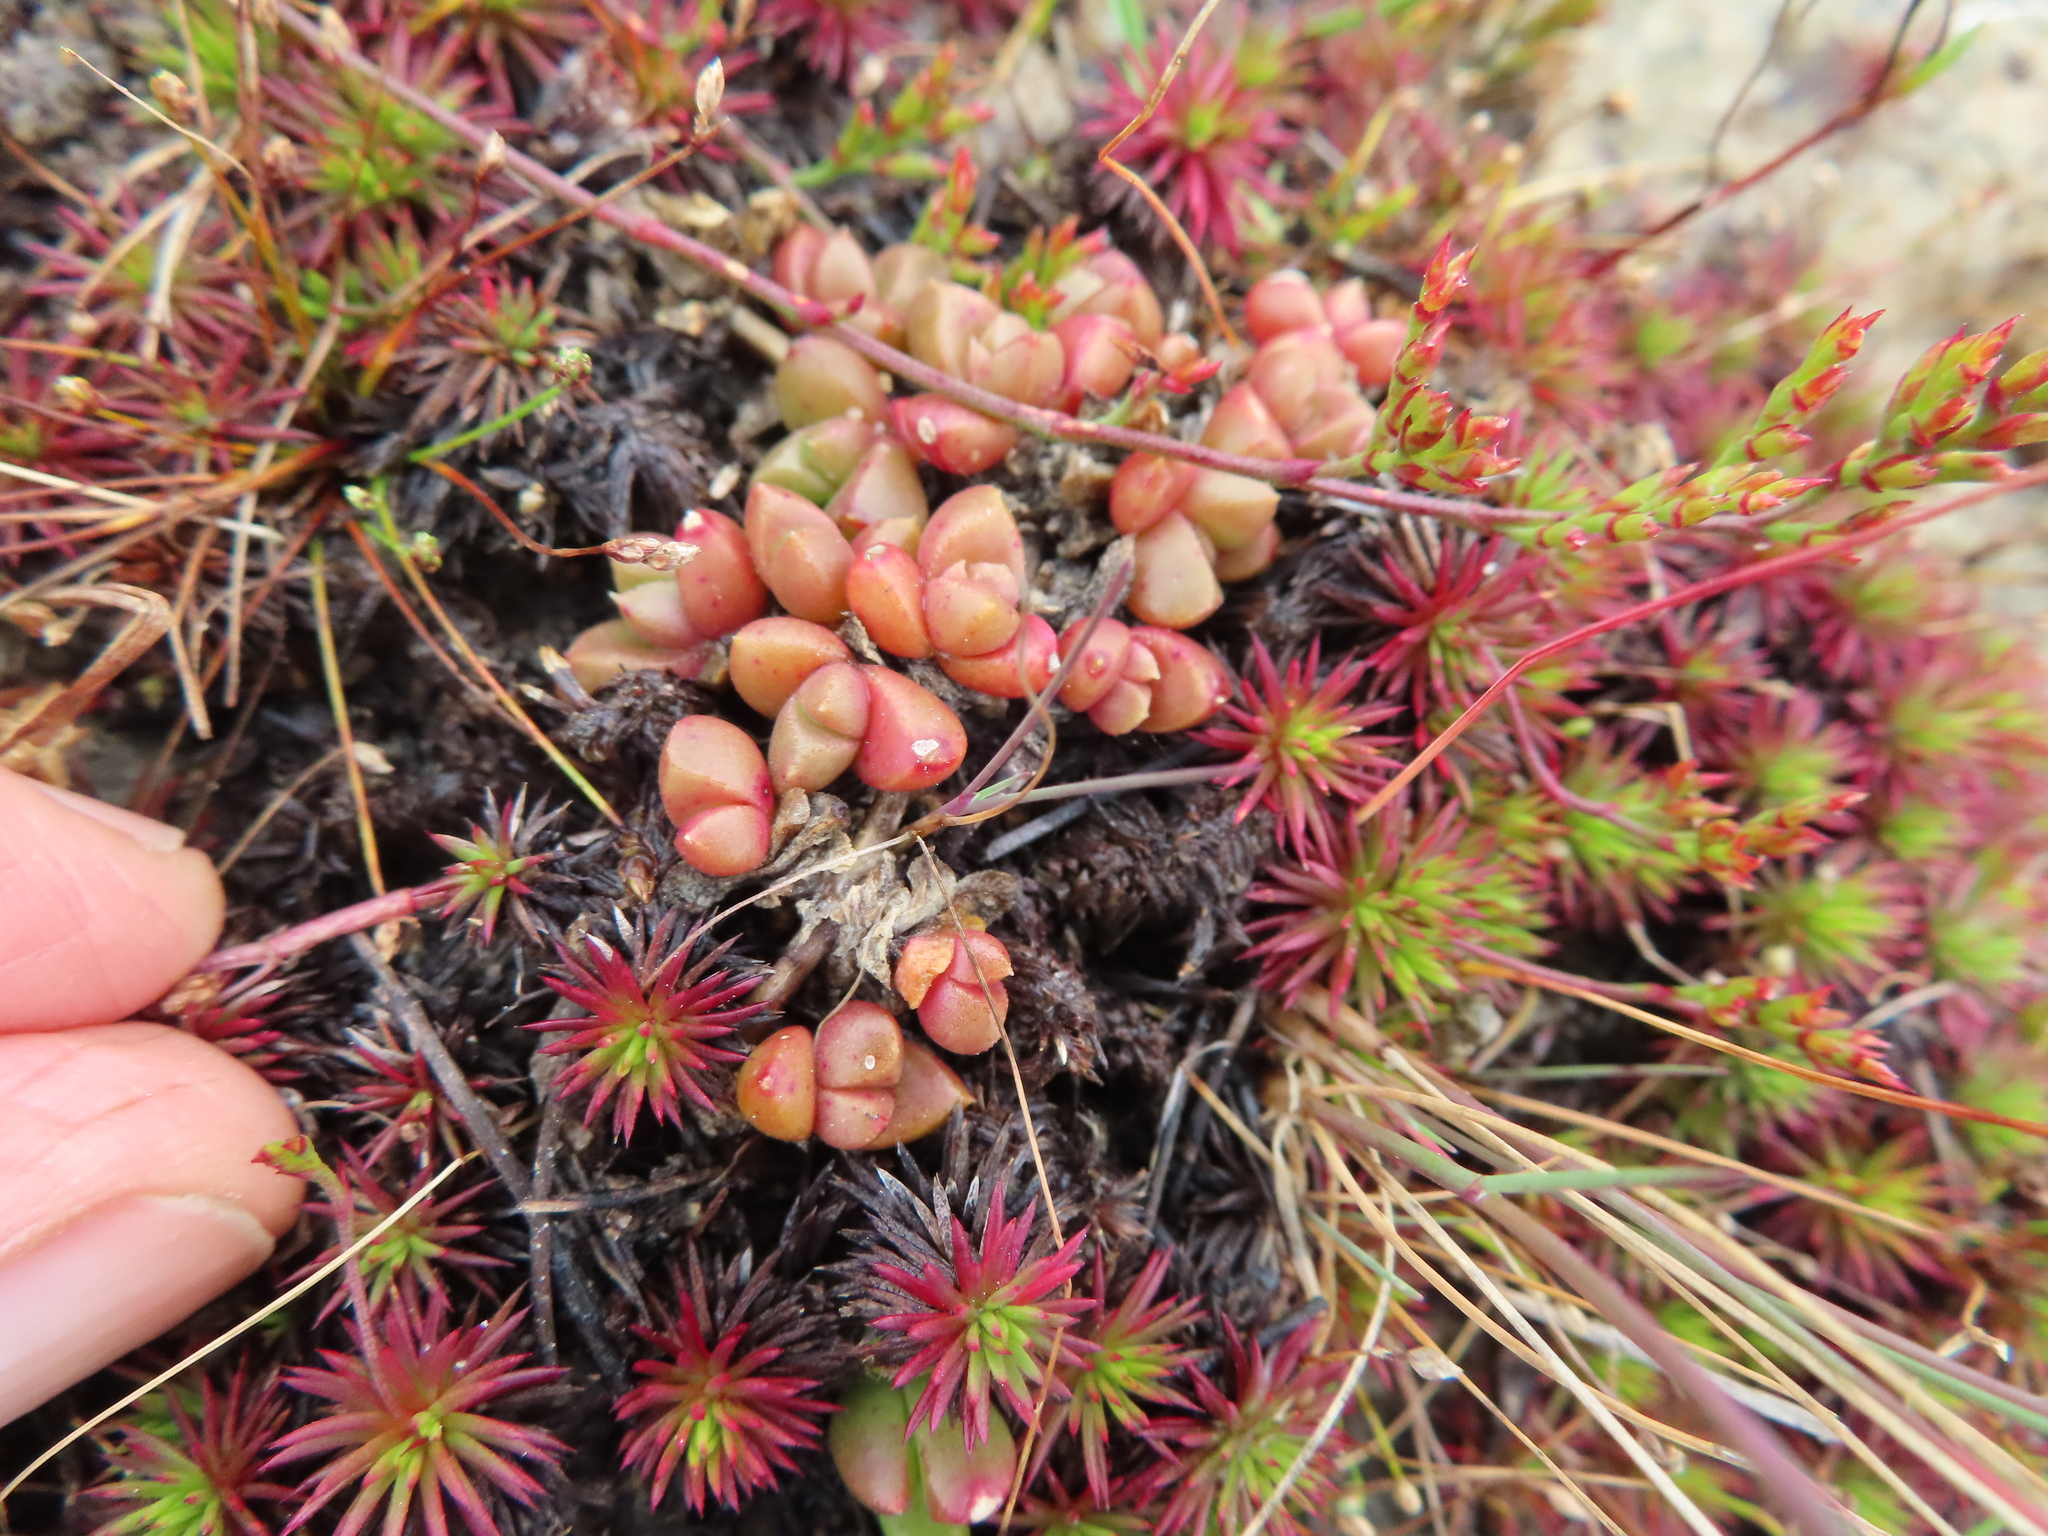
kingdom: Plantae
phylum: Tracheophyta
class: Magnoliopsida
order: Caryophyllales
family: Aizoaceae
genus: Disphyma
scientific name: Disphyma dunsdonii
